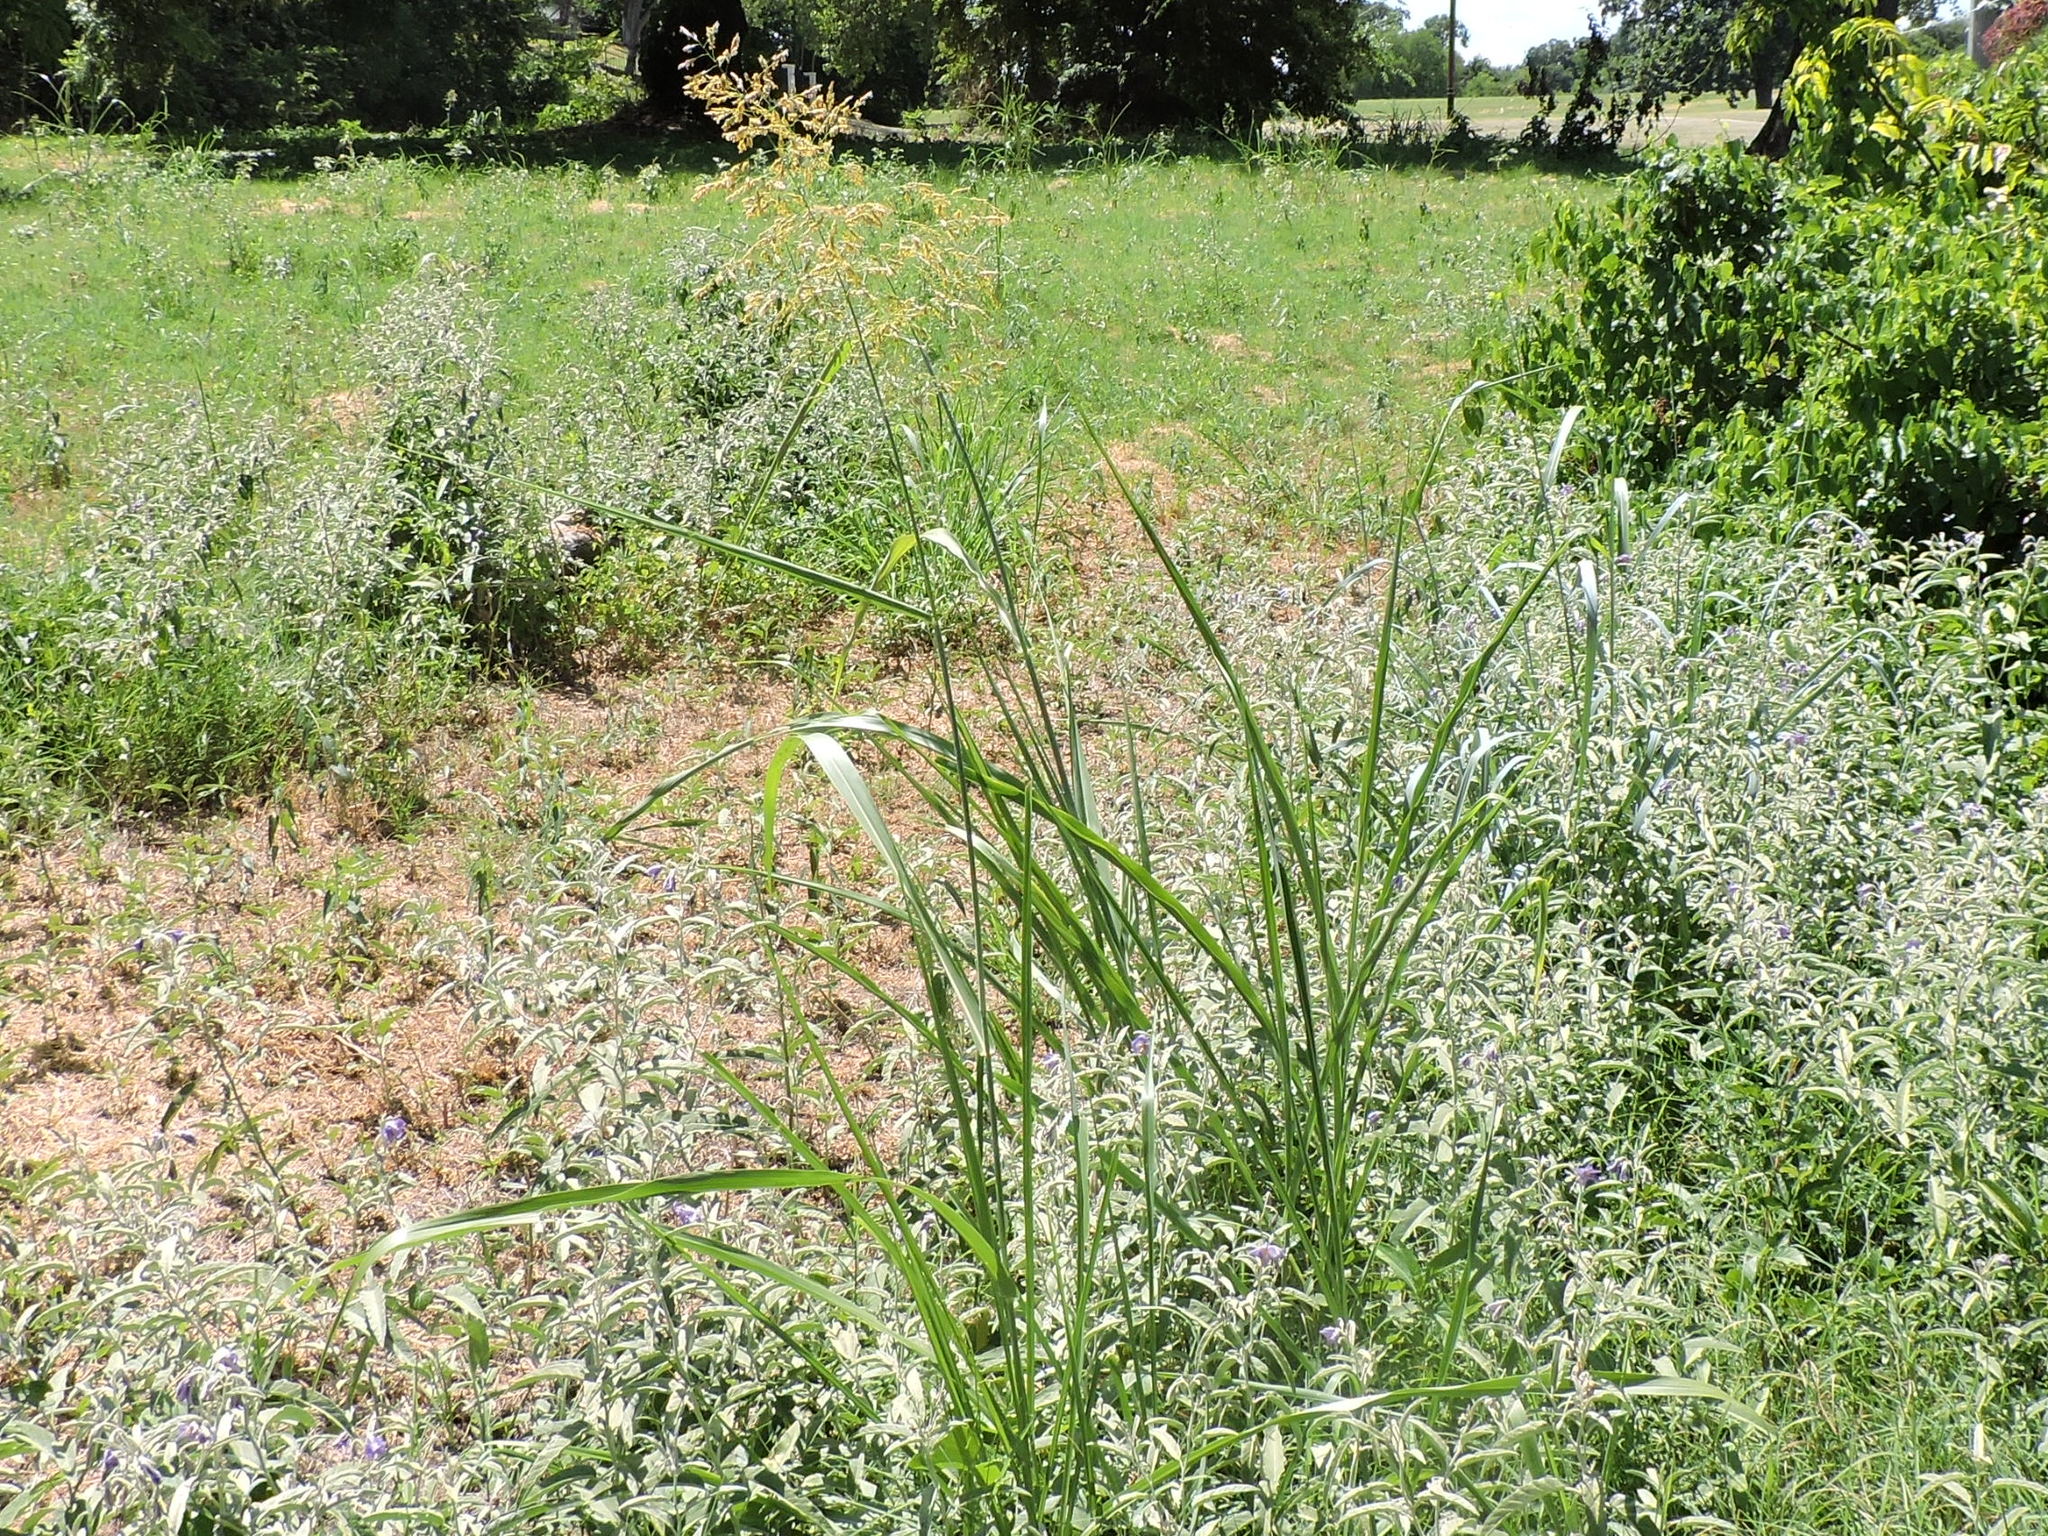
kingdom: Plantae
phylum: Tracheophyta
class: Liliopsida
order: Poales
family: Poaceae
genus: Sorghum
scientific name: Sorghum halepense
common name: Johnson-grass
